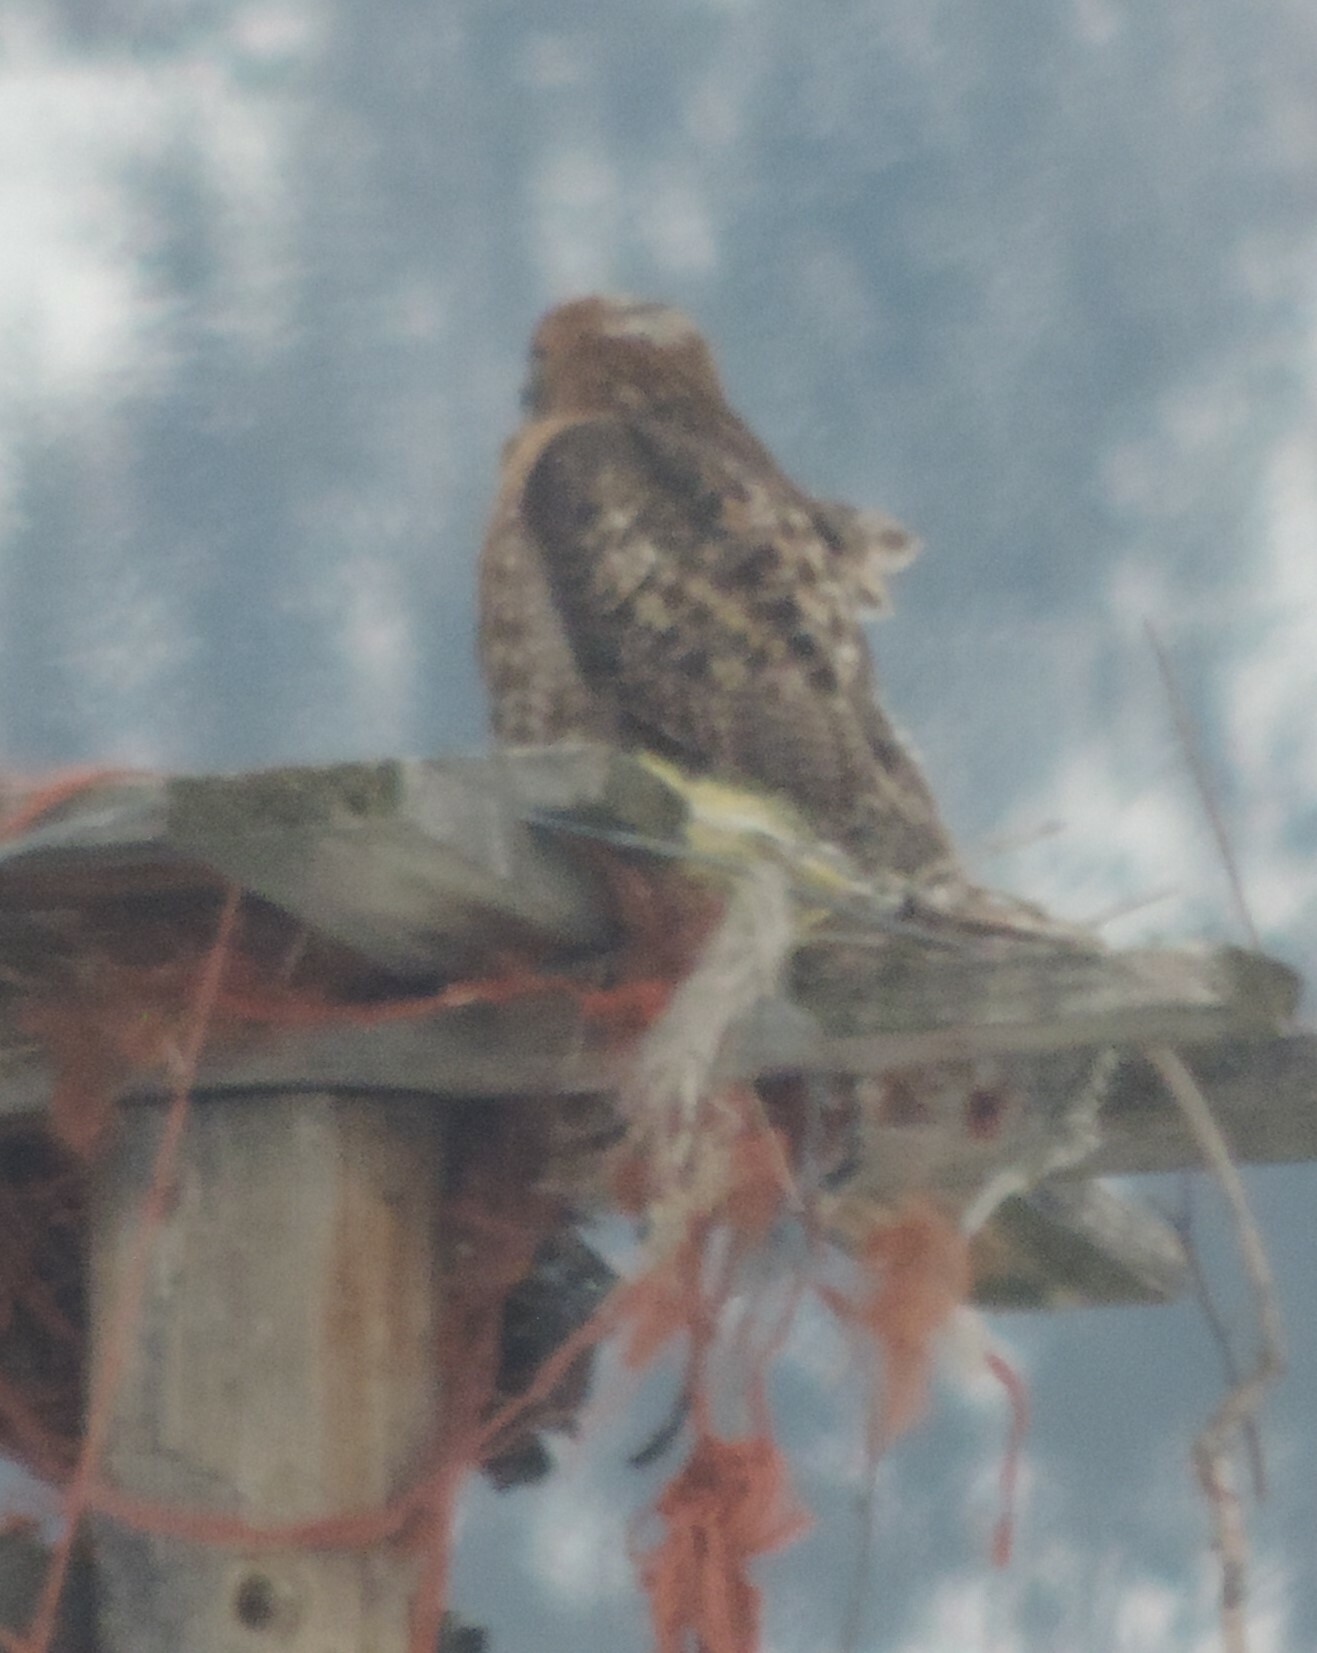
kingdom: Animalia
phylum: Chordata
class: Aves
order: Accipitriformes
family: Accipitridae
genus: Buteo
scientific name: Buteo jamaicensis
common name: Red-tailed hawk
